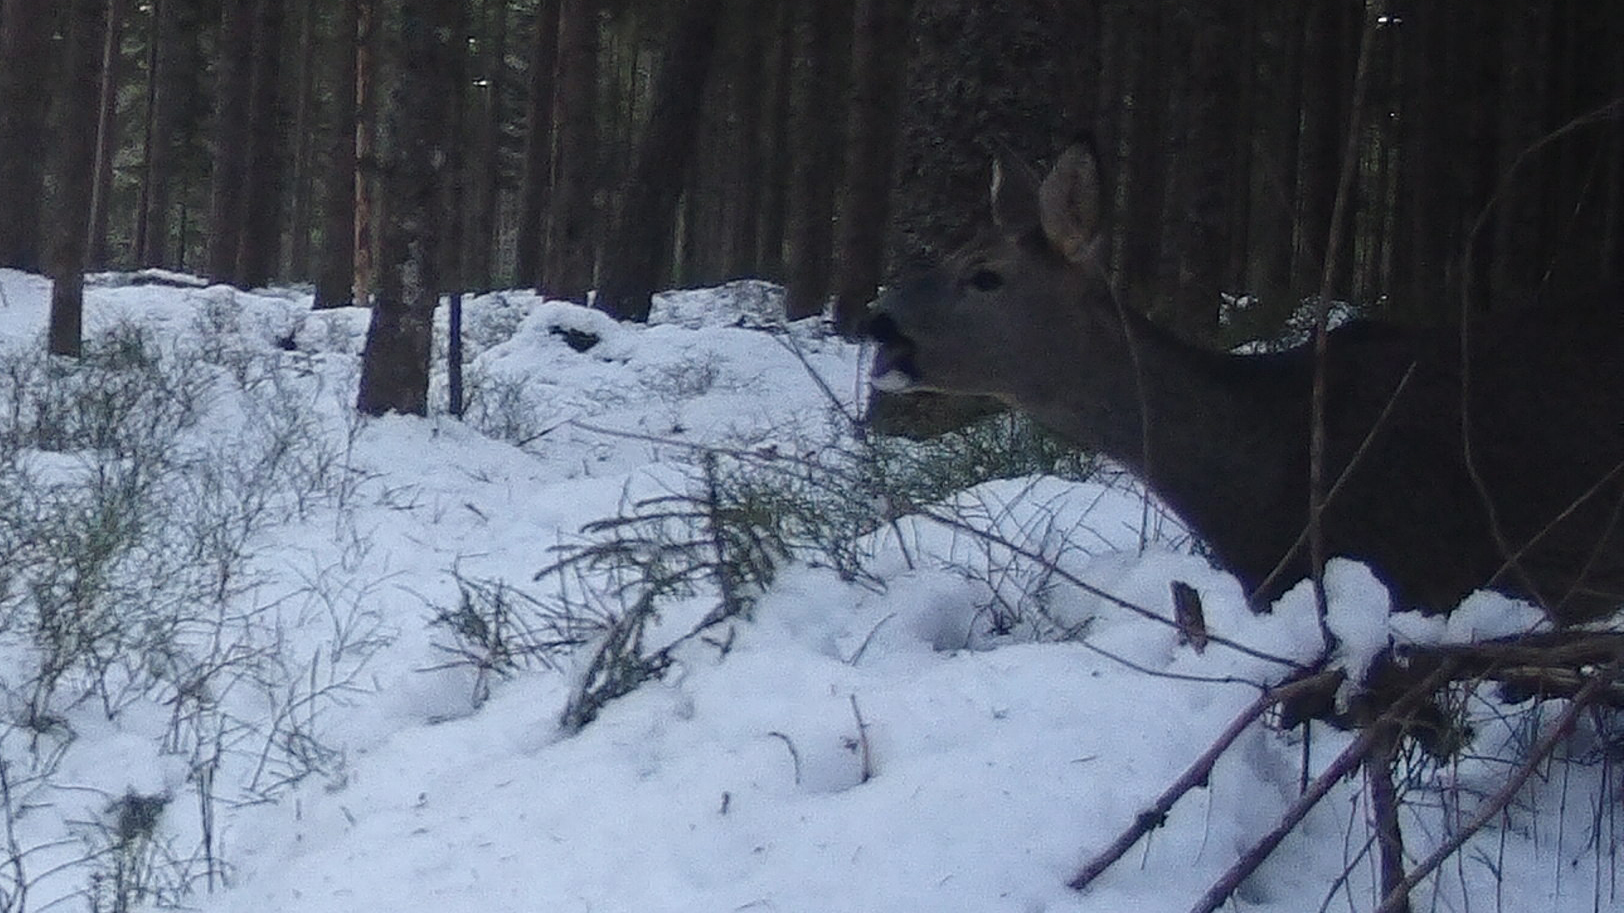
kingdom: Animalia
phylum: Chordata
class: Mammalia
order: Artiodactyla
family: Cervidae
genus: Capreolus
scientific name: Capreolus capreolus
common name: Western roe deer
